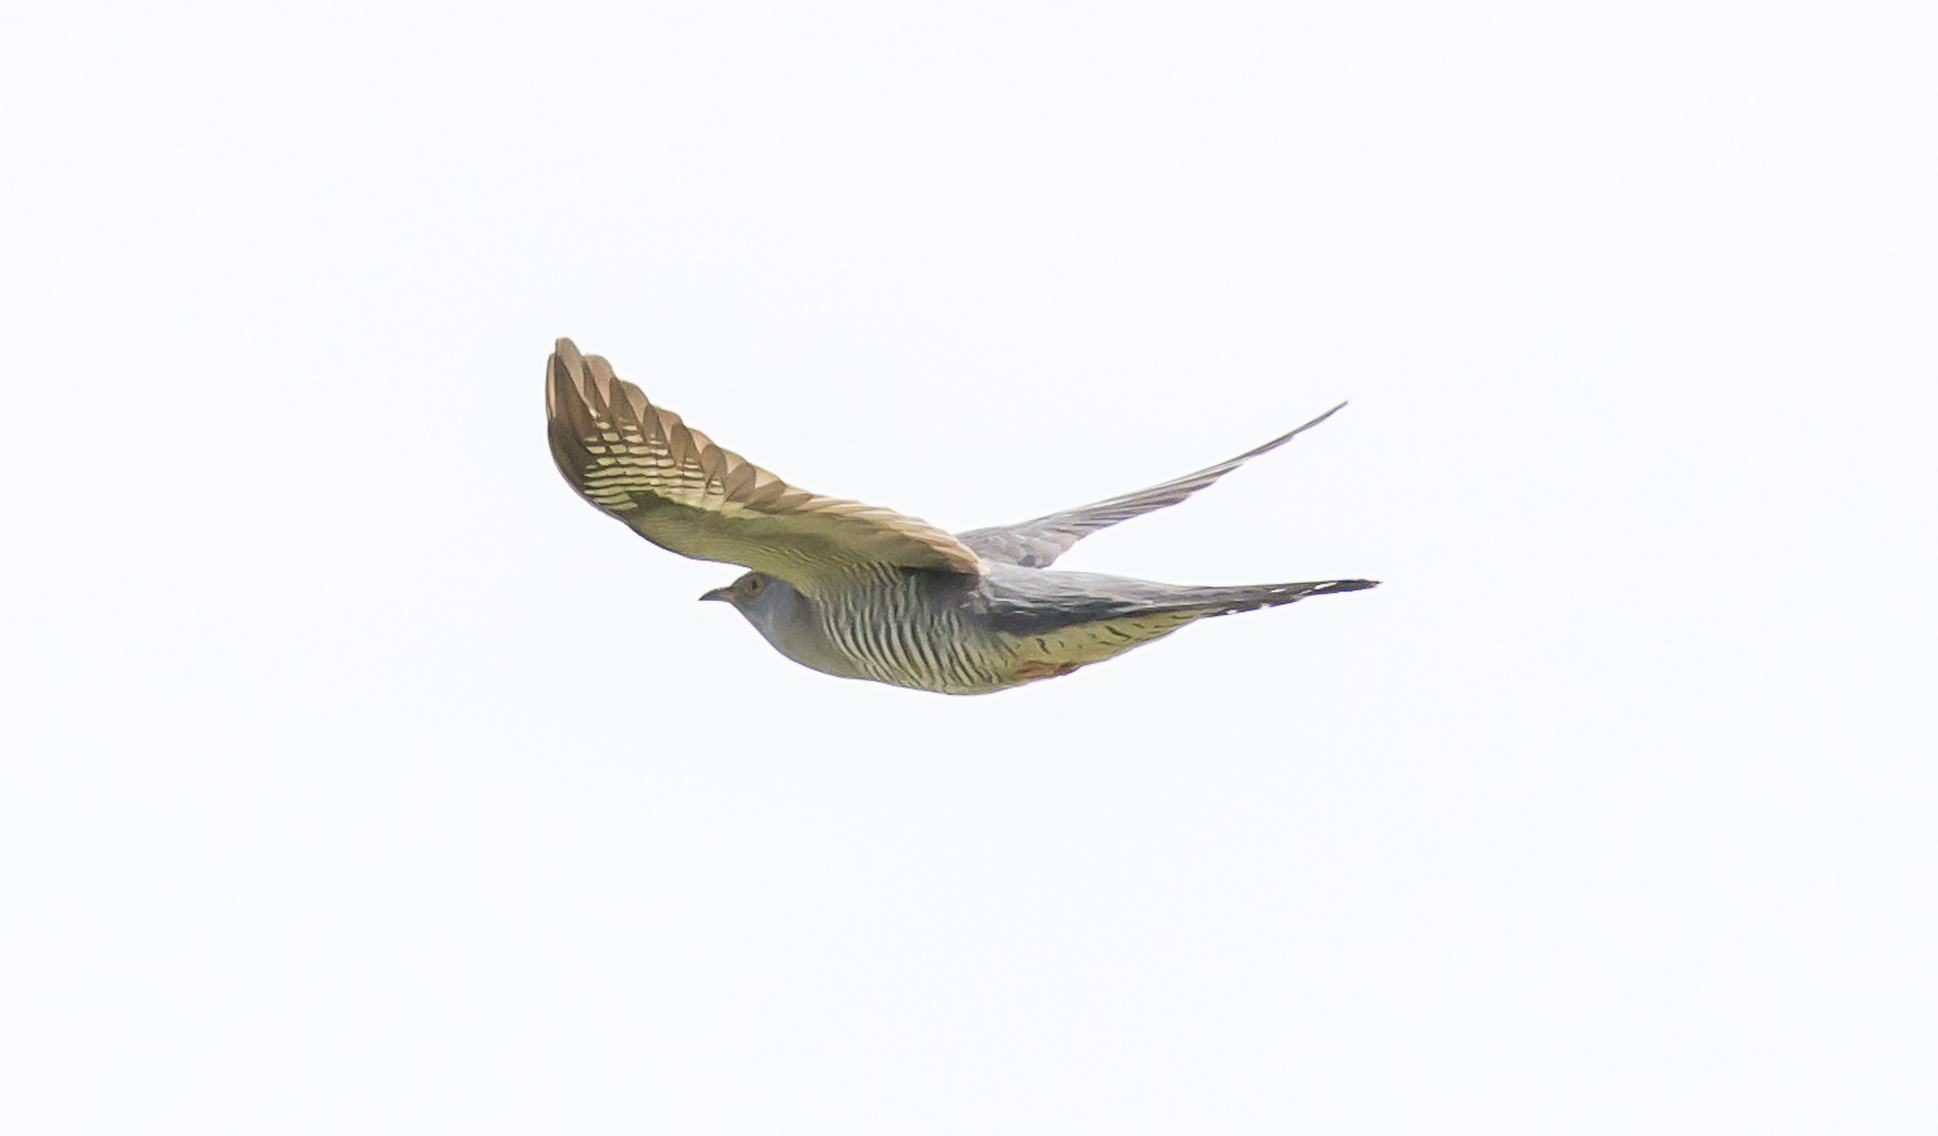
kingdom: Animalia
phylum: Chordata
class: Aves
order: Cuculiformes
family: Cuculidae
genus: Cuculus
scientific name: Cuculus canorus
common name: Common cuckoo
